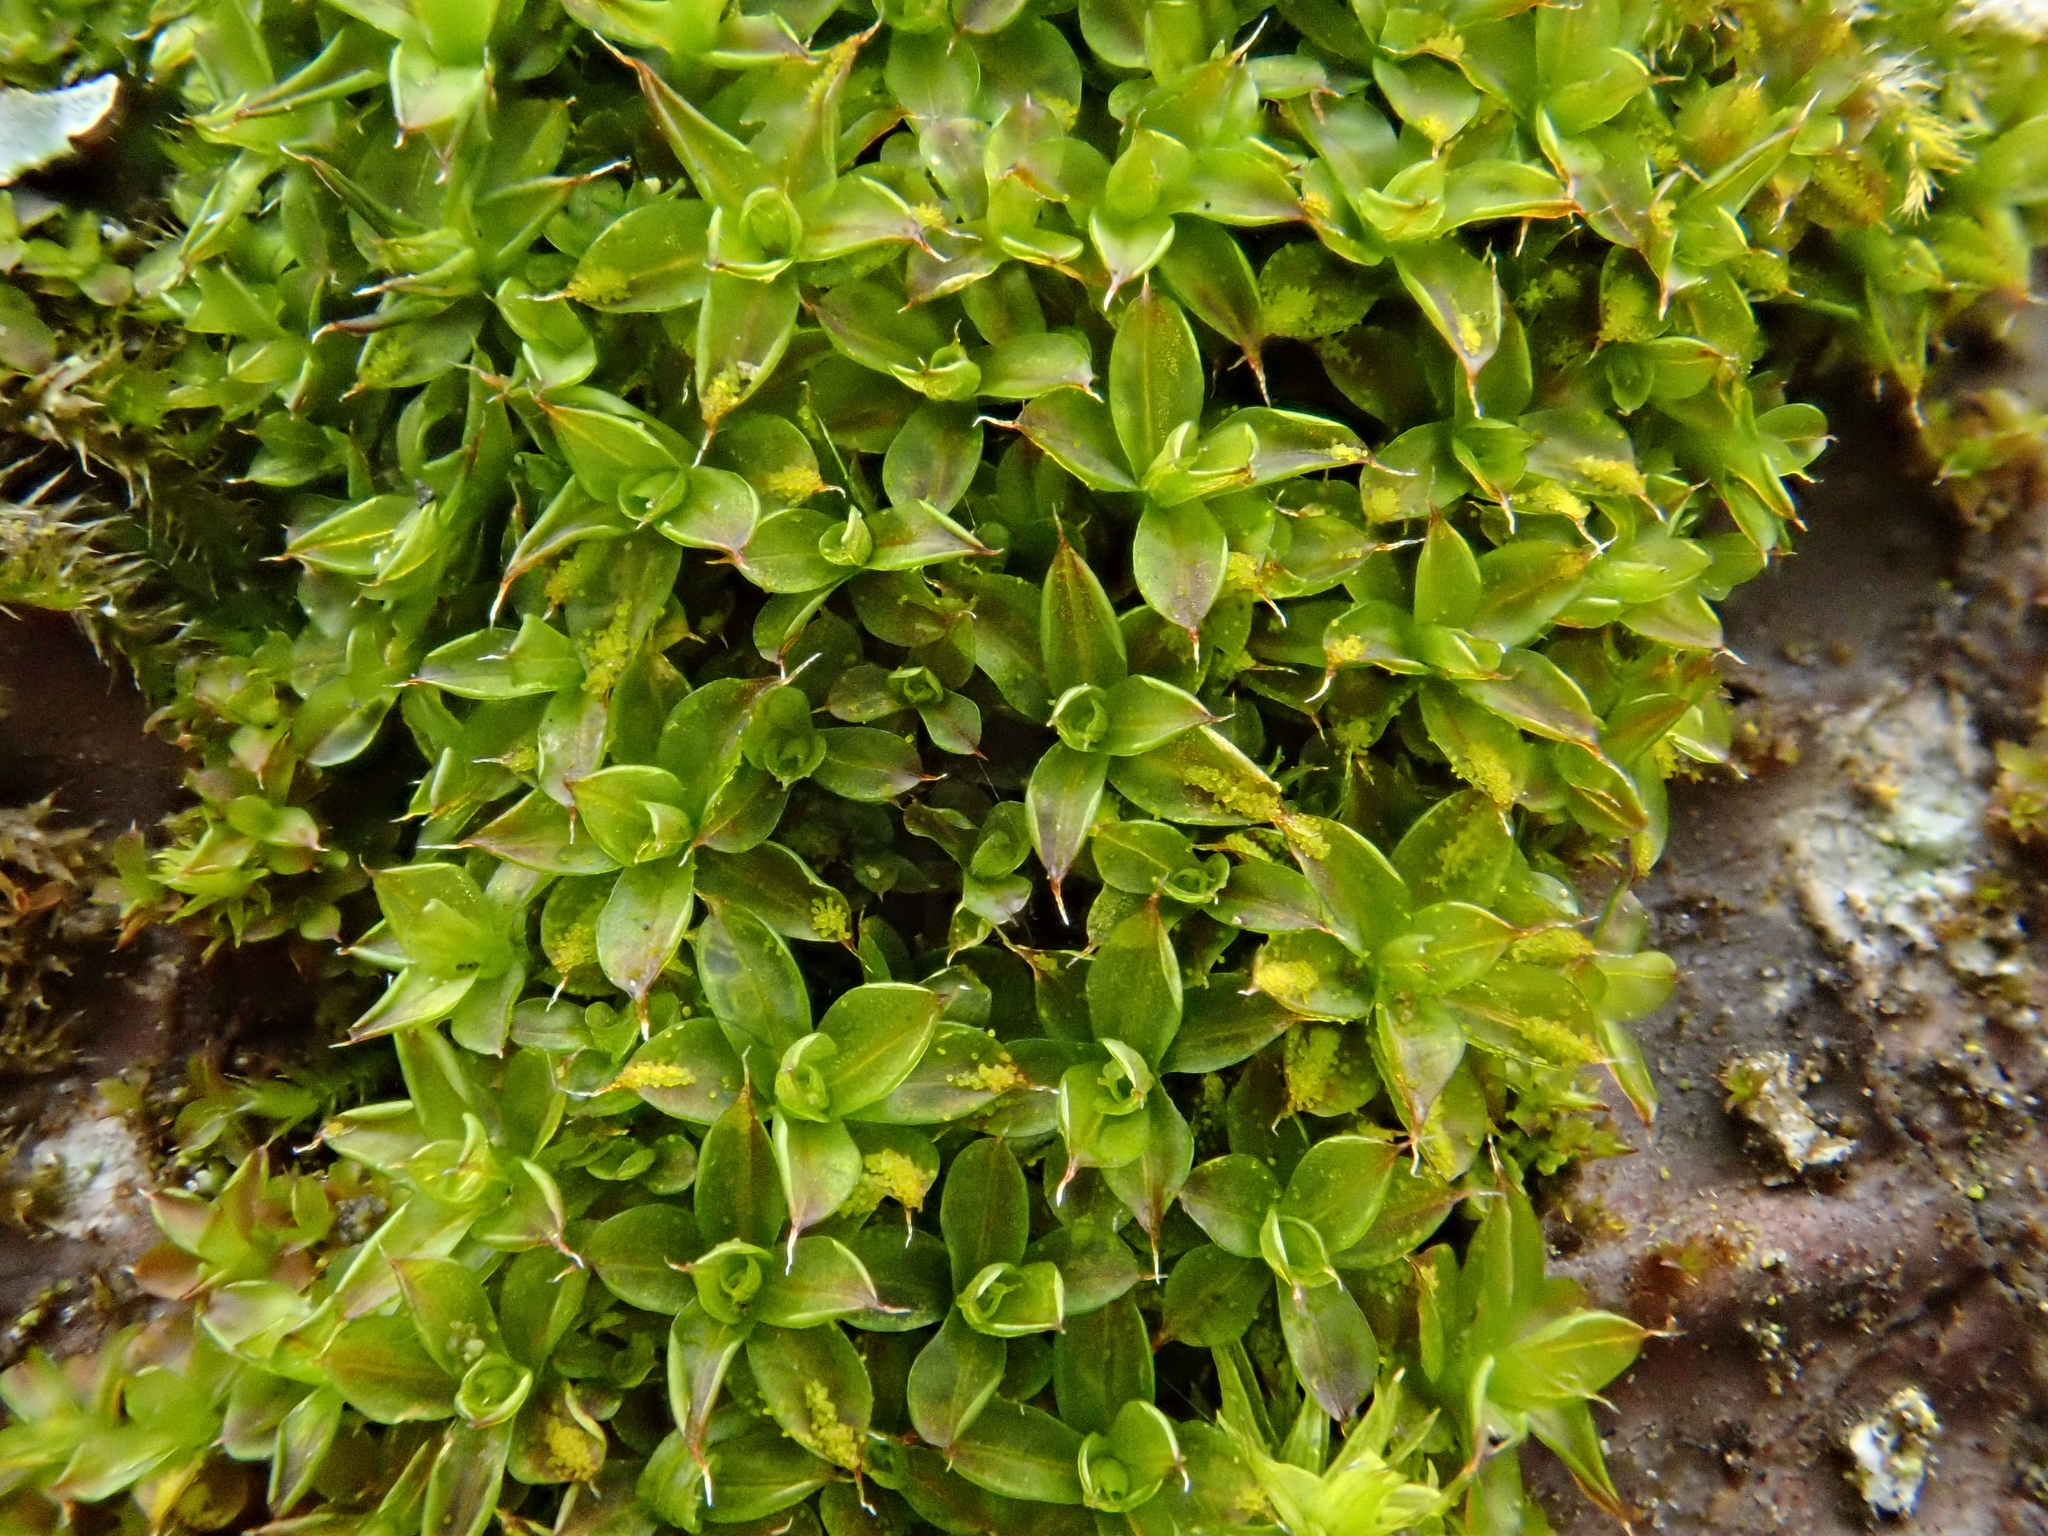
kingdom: Plantae
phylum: Bryophyta
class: Bryopsida
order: Pottiales
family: Pottiaceae
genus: Syntrichia
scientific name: Syntrichia papillosa
